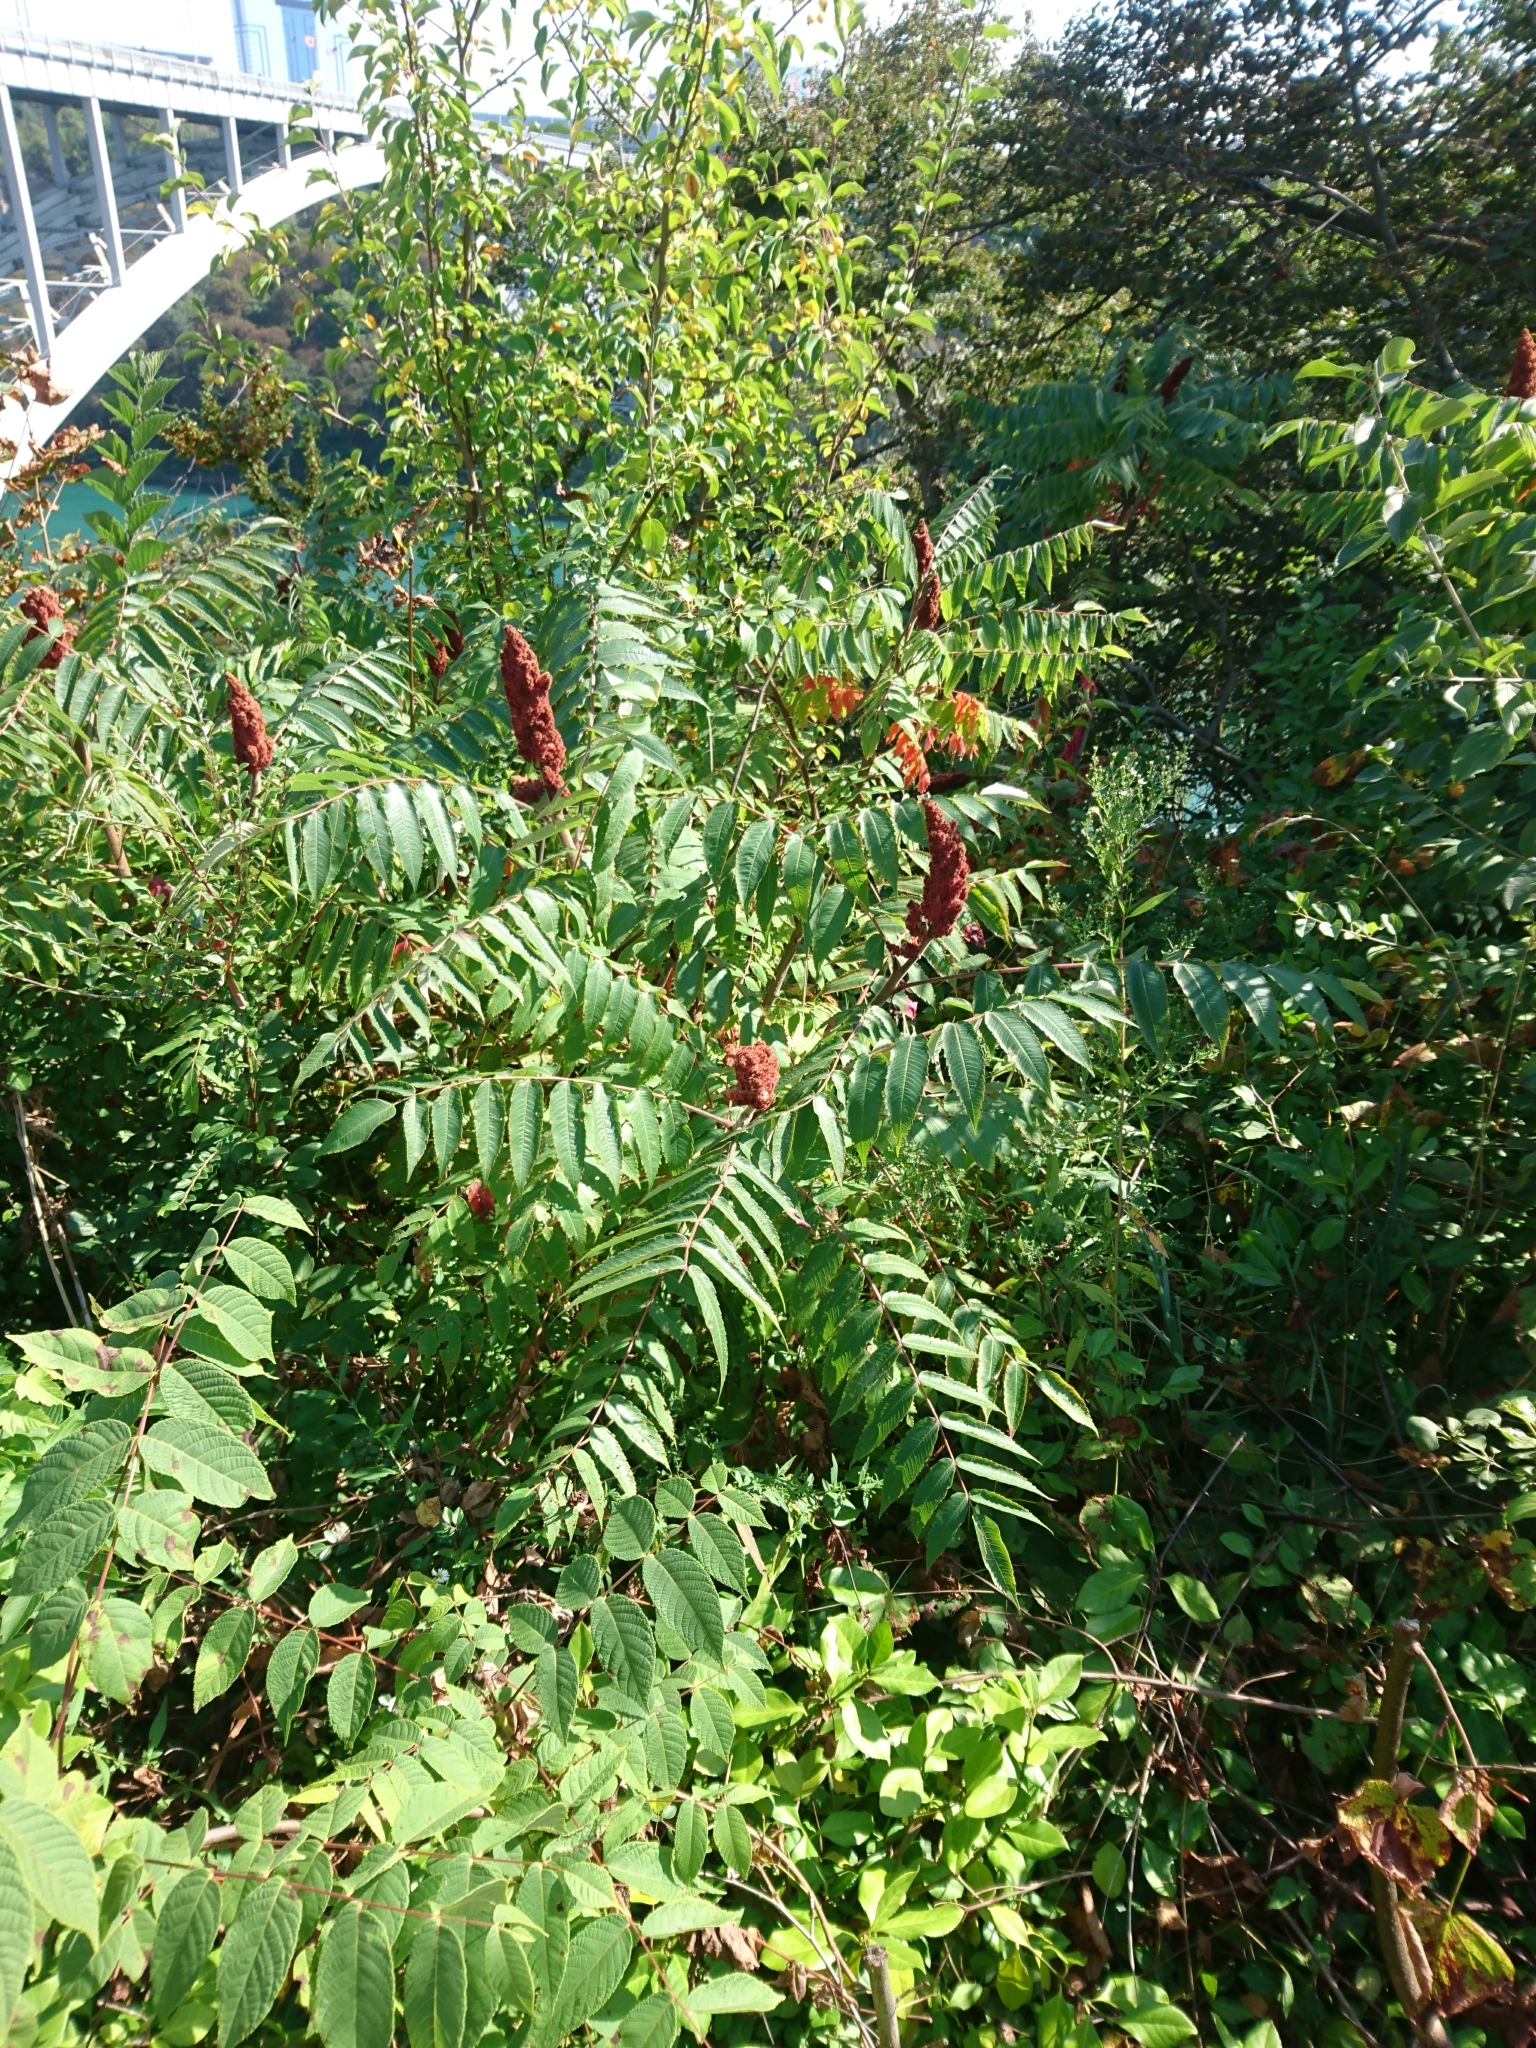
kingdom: Plantae
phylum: Tracheophyta
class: Magnoliopsida
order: Sapindales
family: Anacardiaceae
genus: Rhus
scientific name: Rhus typhina
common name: Staghorn sumac
